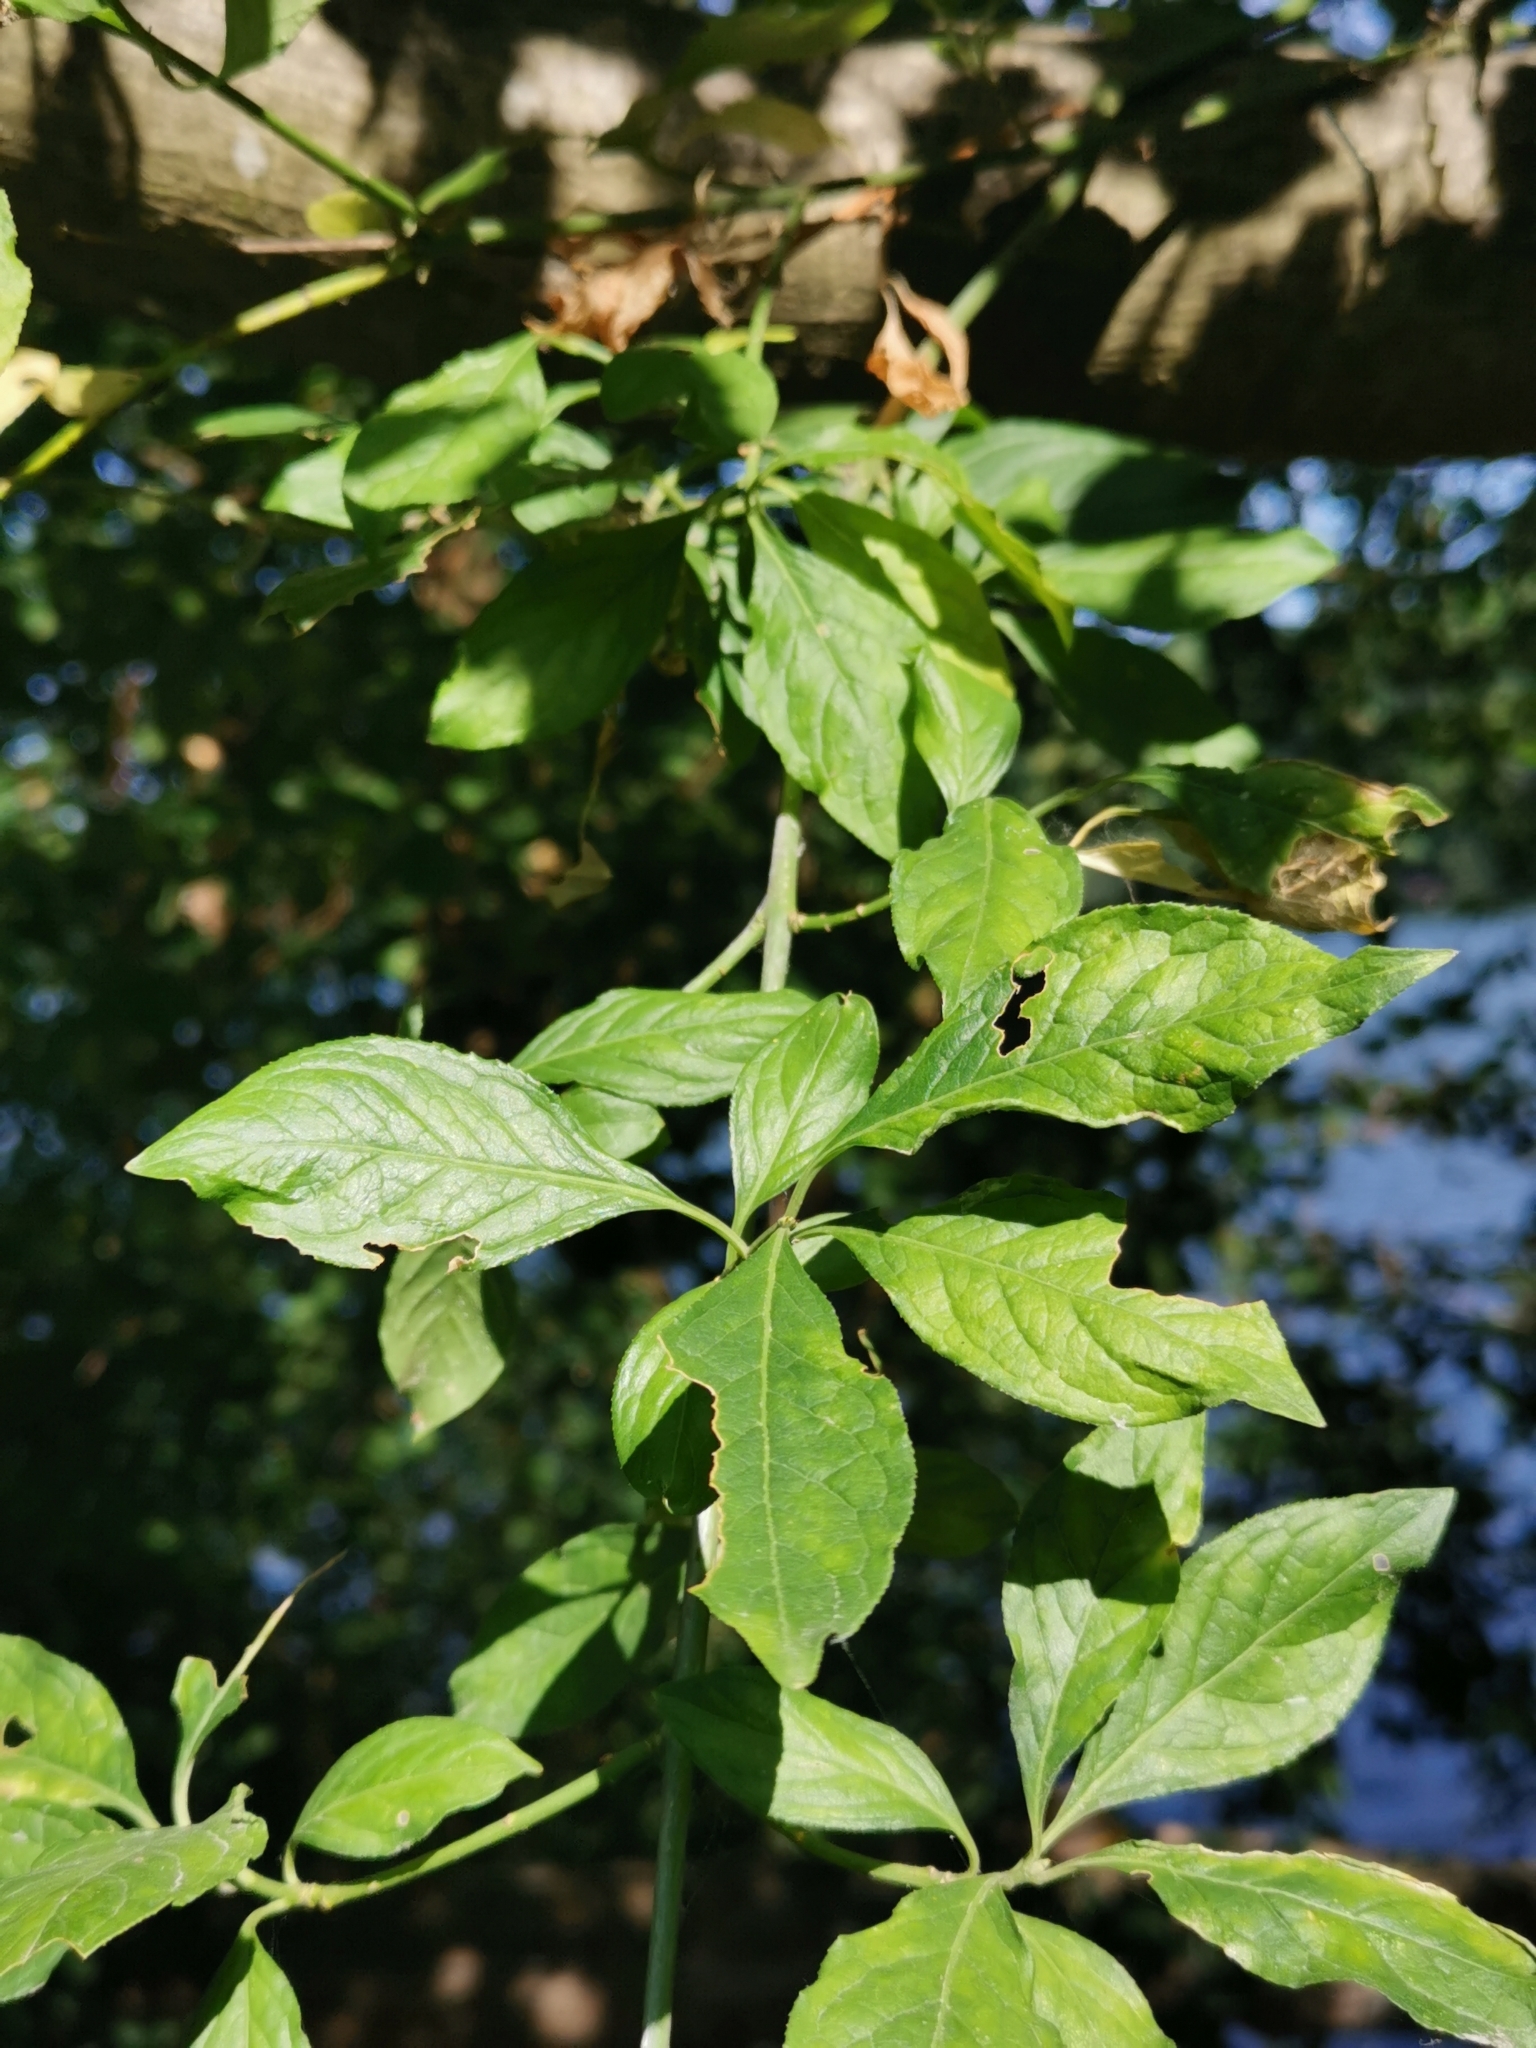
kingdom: Plantae
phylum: Tracheophyta
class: Magnoliopsida
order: Celastrales
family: Celastraceae
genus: Euonymus
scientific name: Euonymus europaeus
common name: Spindle
